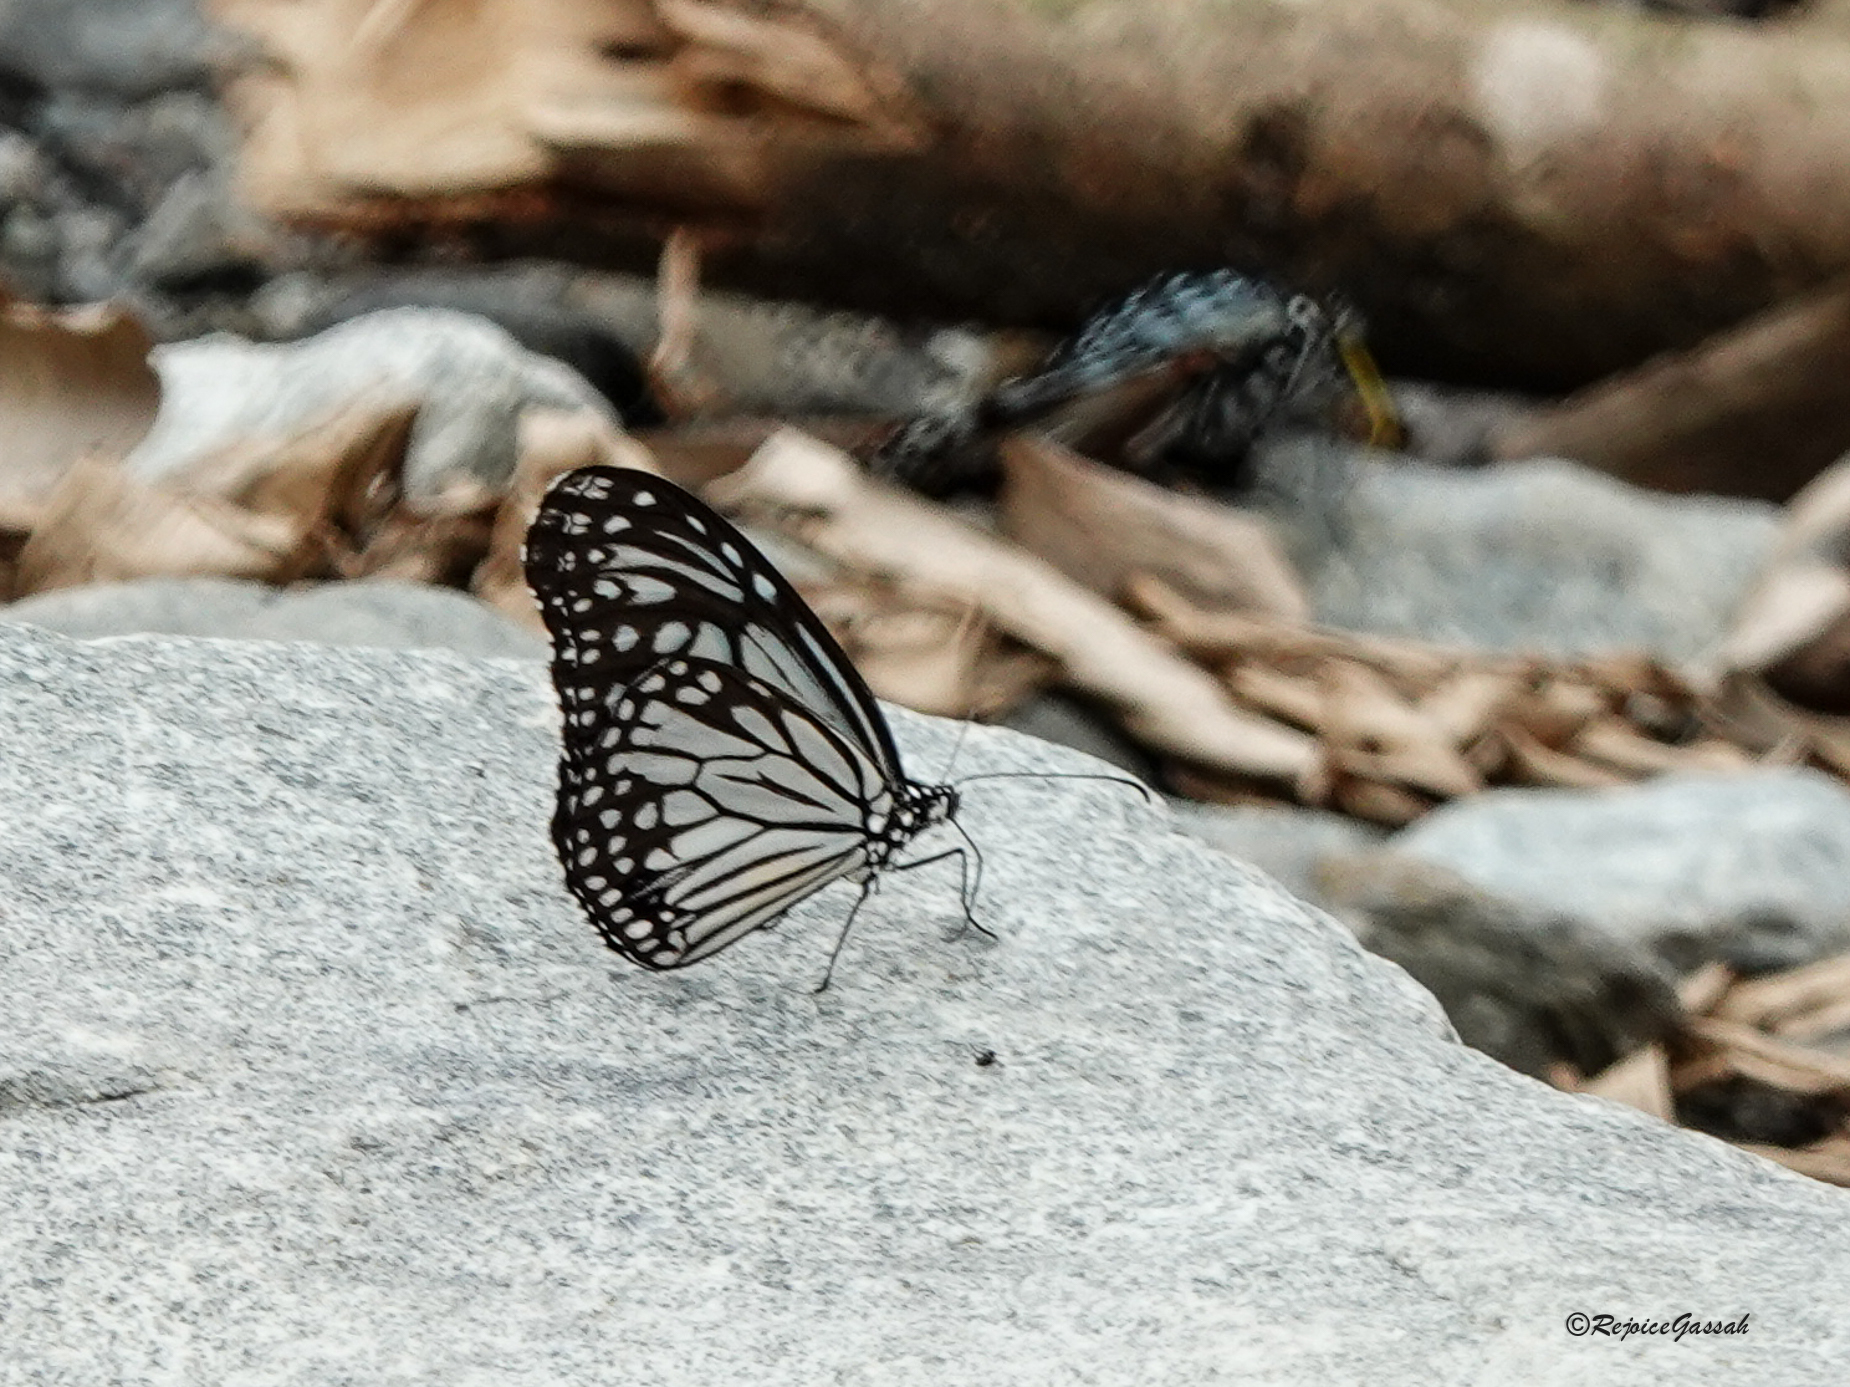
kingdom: Animalia
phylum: Arthropoda
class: Insecta
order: Lepidoptera
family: Nymphalidae
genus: Parantica
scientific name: Parantica aglea
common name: Glassy tiger
